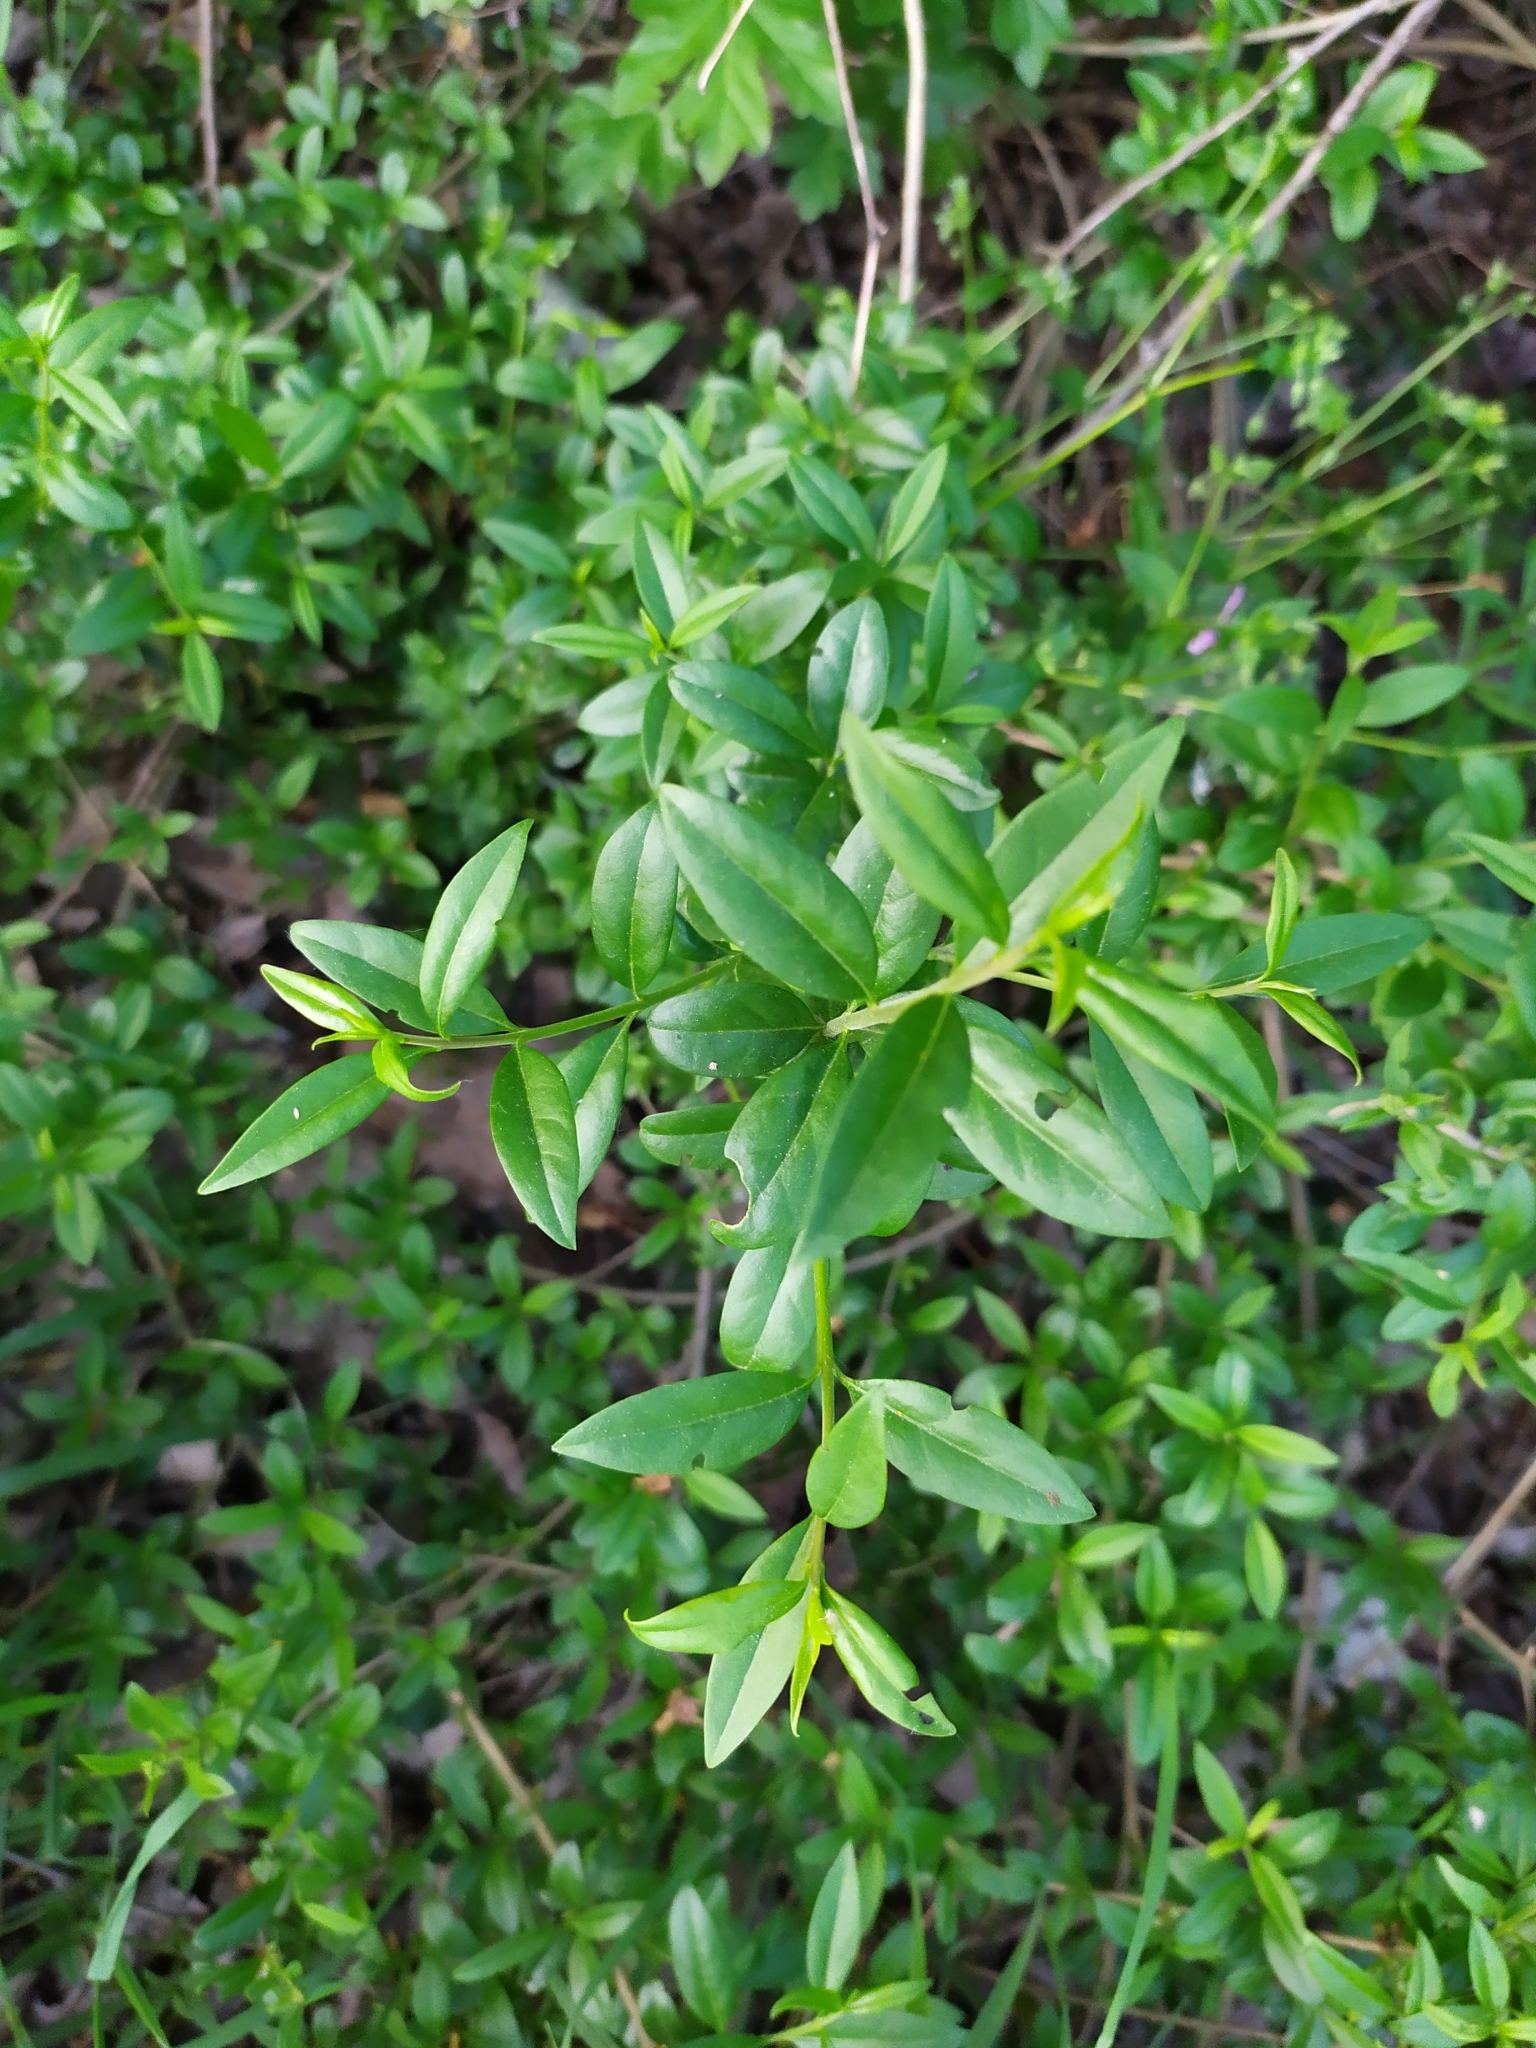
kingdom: Plantae
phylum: Tracheophyta
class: Magnoliopsida
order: Lamiales
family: Oleaceae
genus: Ligustrum
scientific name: Ligustrum vulgare
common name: Wild privet
